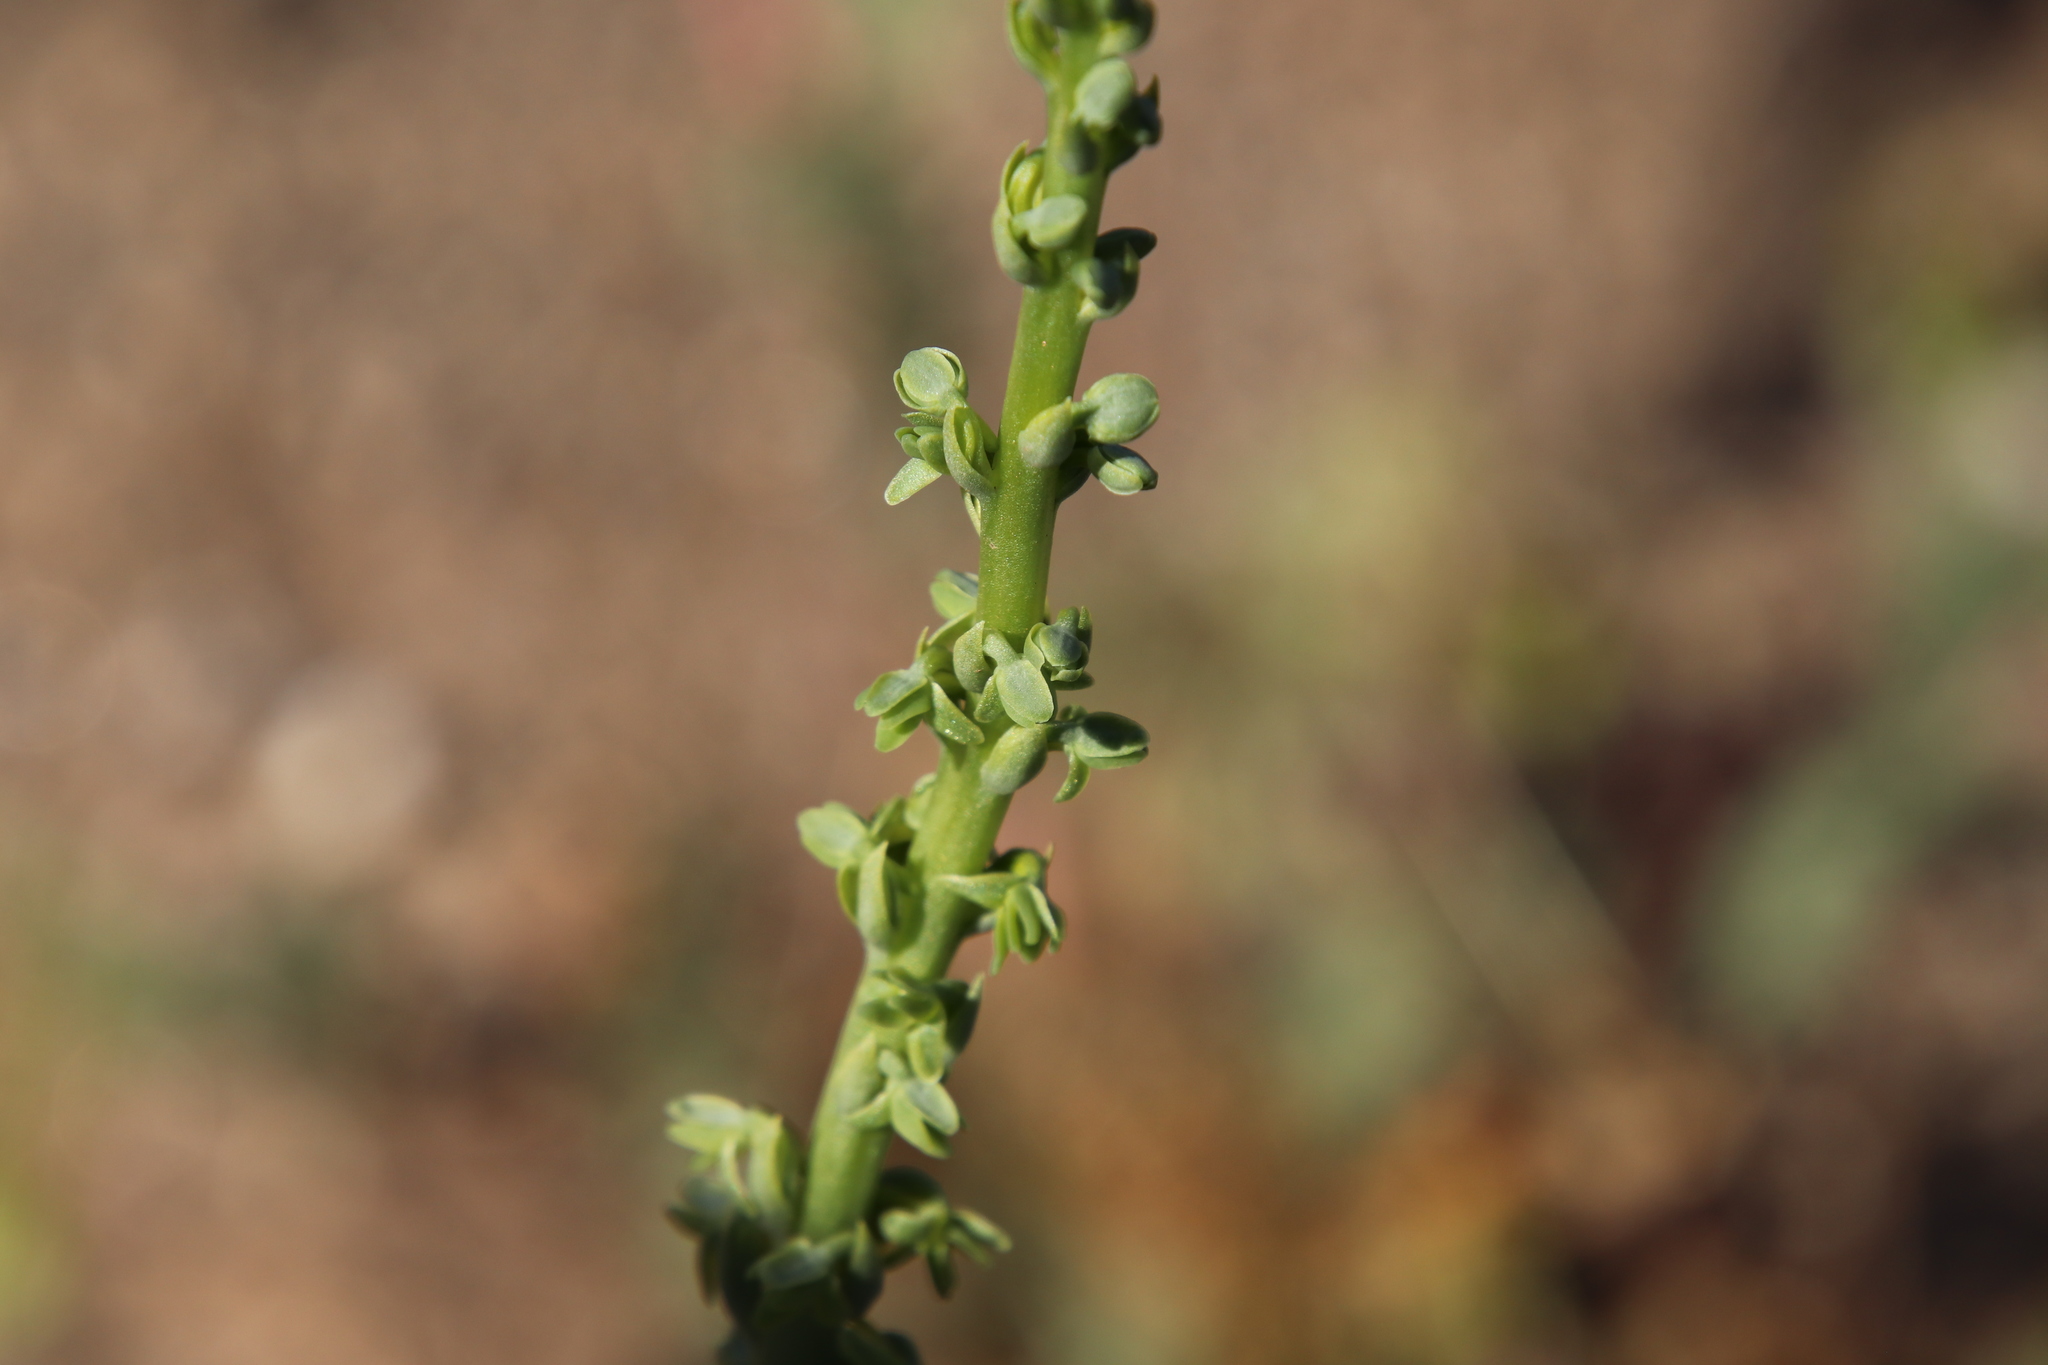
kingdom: Plantae
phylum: Tracheophyta
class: Liliopsida
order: Asparagales
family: Orchidaceae
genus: Platanthera
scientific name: Platanthera cooperi
